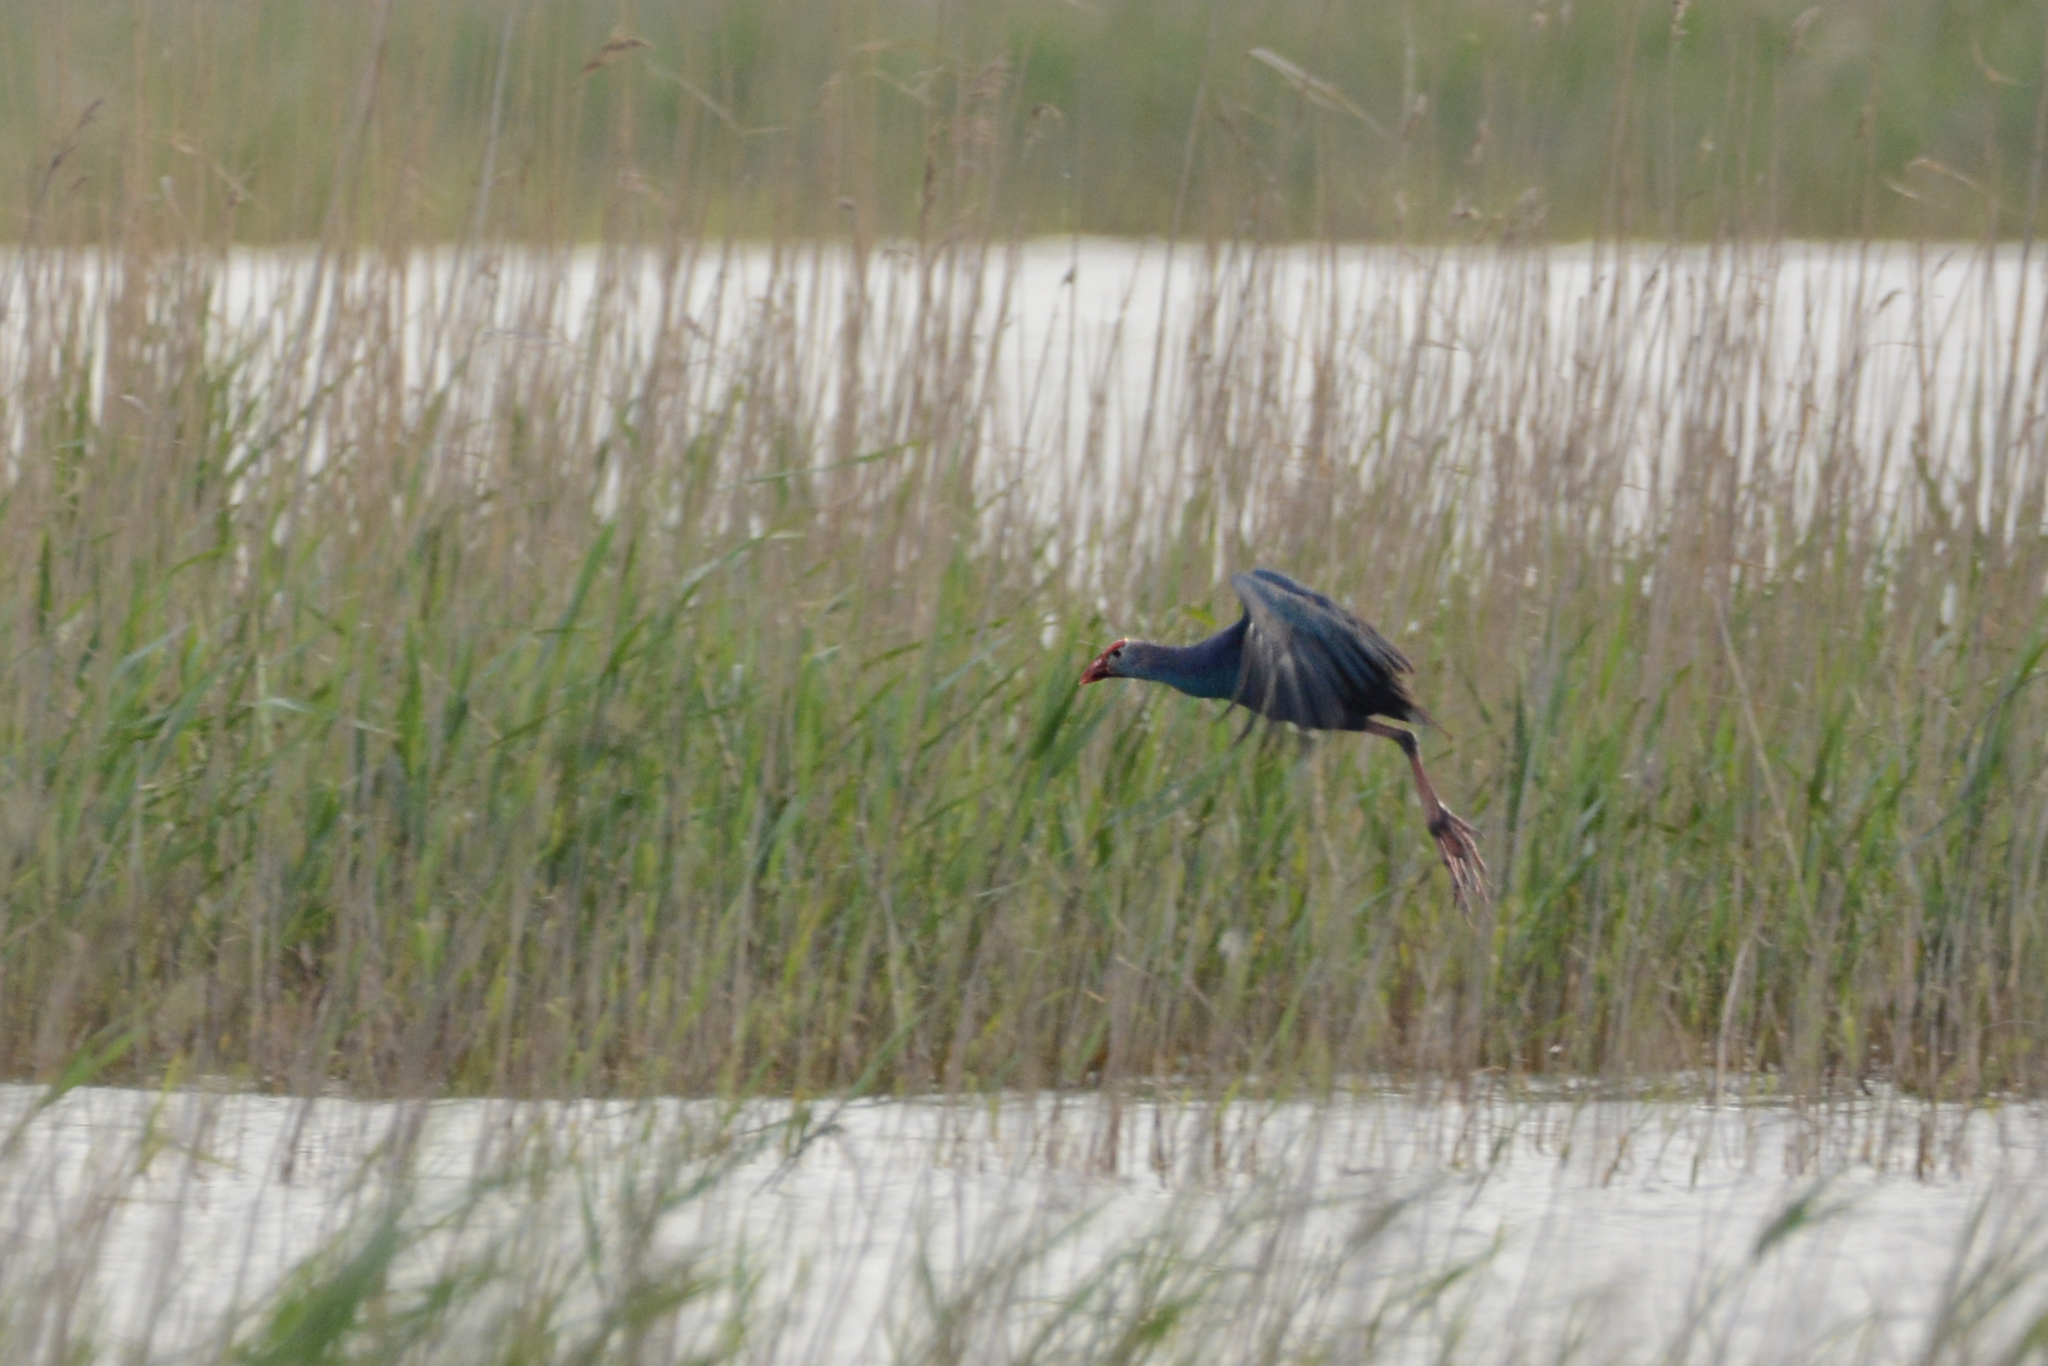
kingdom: Animalia
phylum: Chordata
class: Aves
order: Gruiformes
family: Rallidae
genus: Porphyrio
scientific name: Porphyrio porphyrio
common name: Purple swamphen
